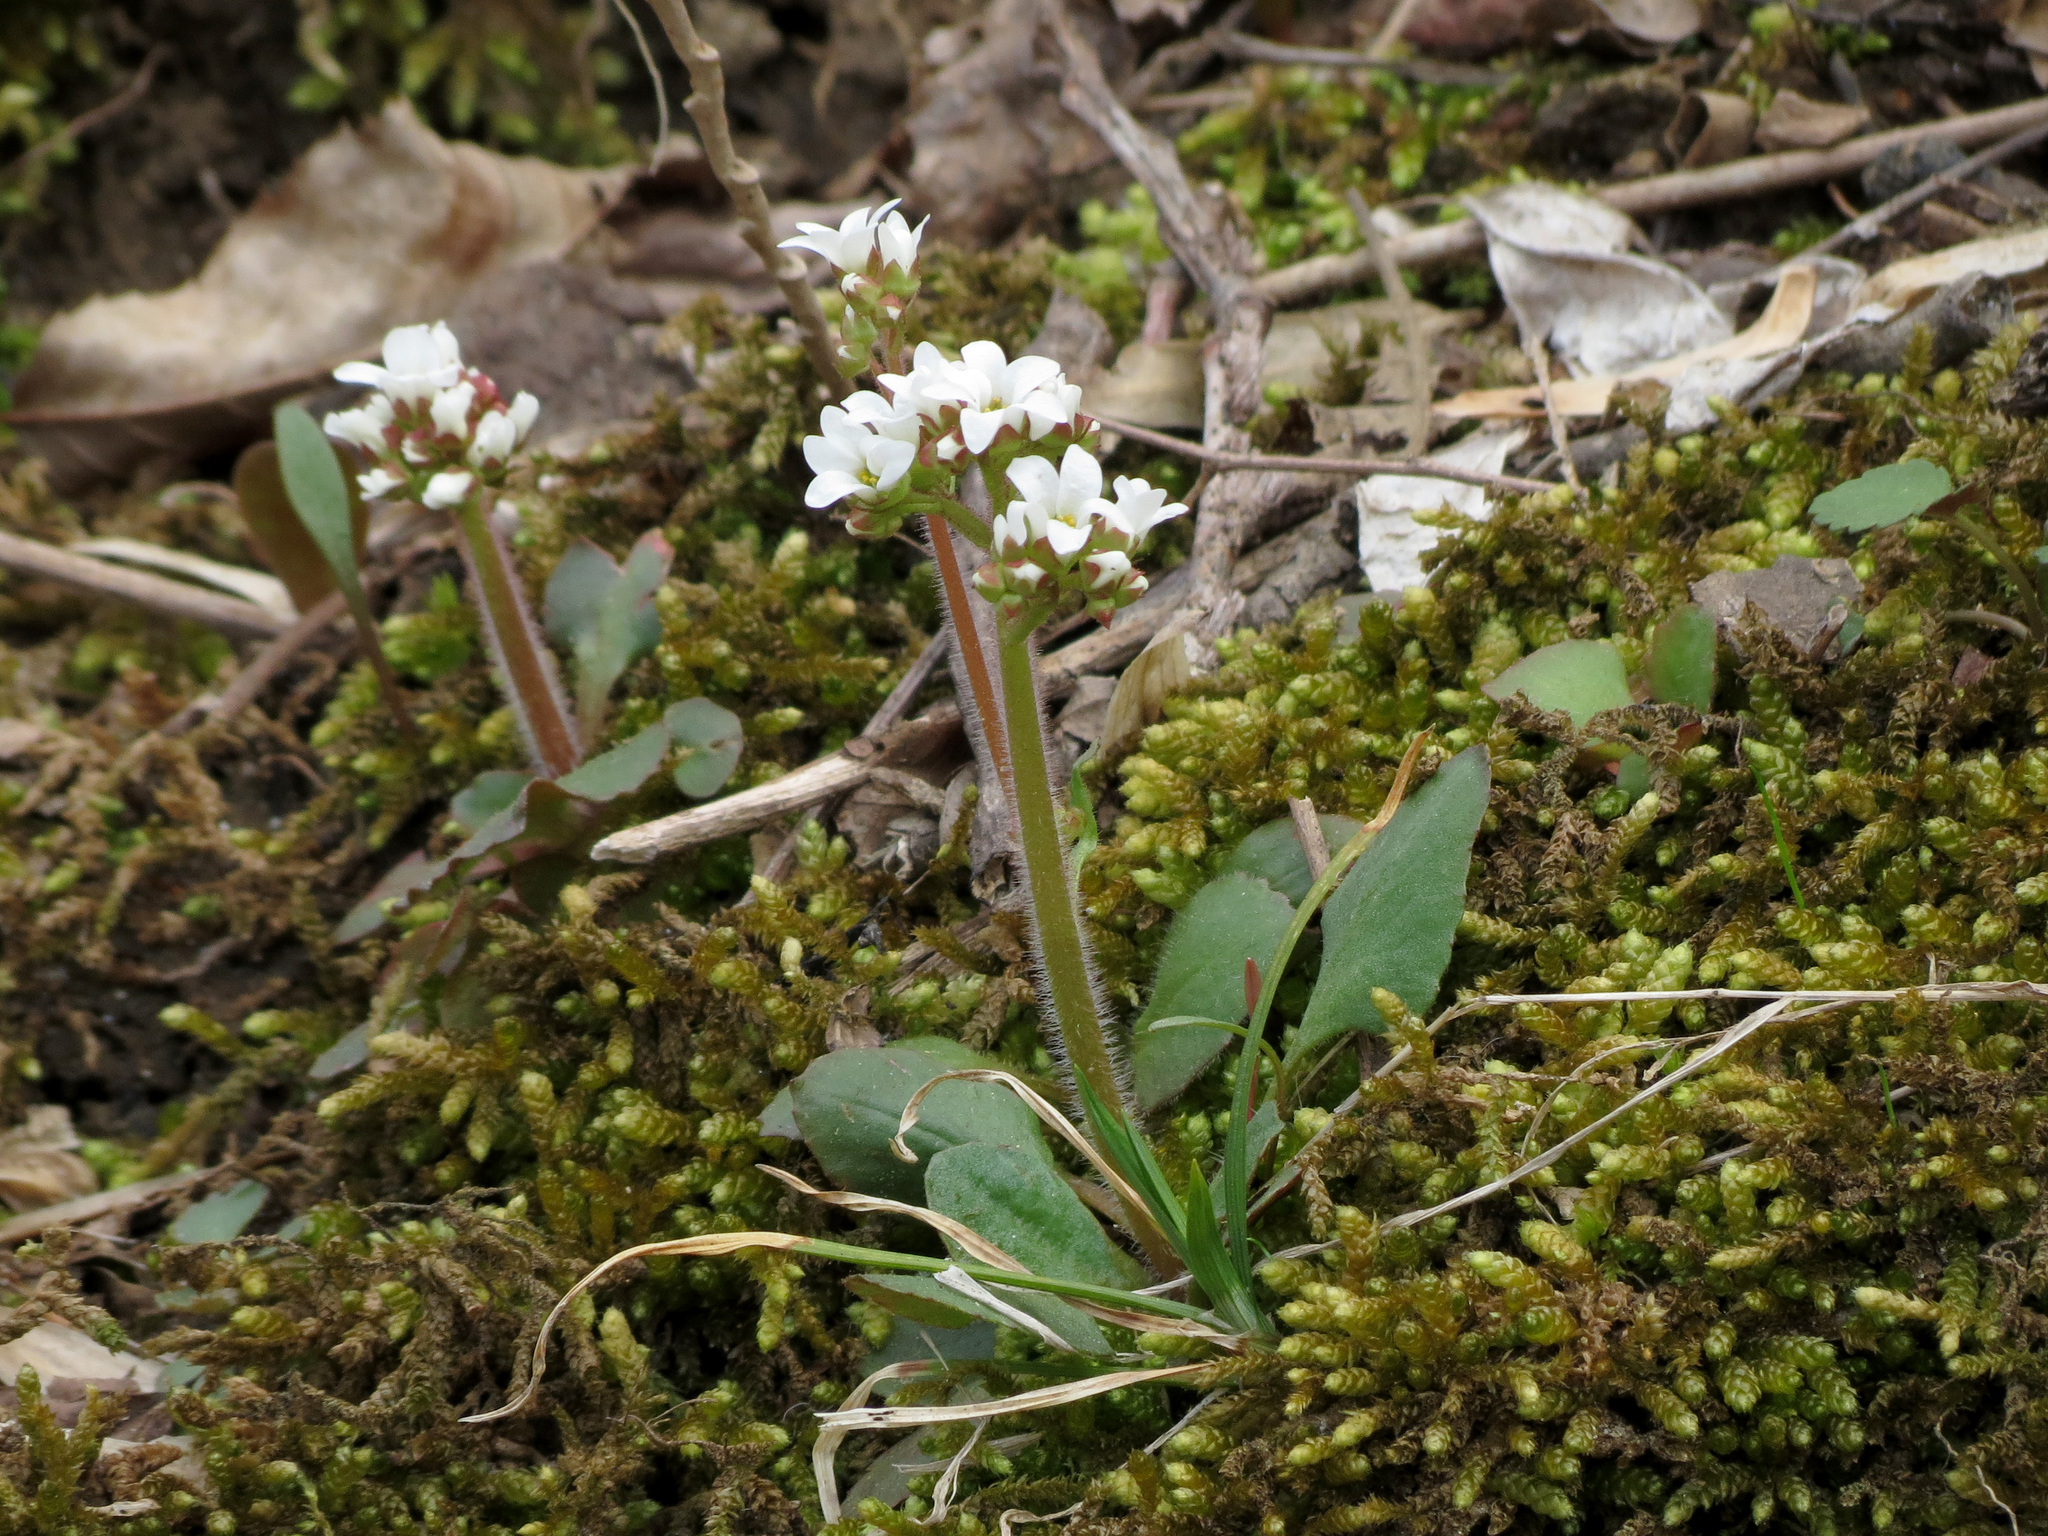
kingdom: Plantae
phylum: Tracheophyta
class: Magnoliopsida
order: Saxifragales
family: Saxifragaceae
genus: Micranthes
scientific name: Micranthes virginiensis
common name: Early saxifrage
